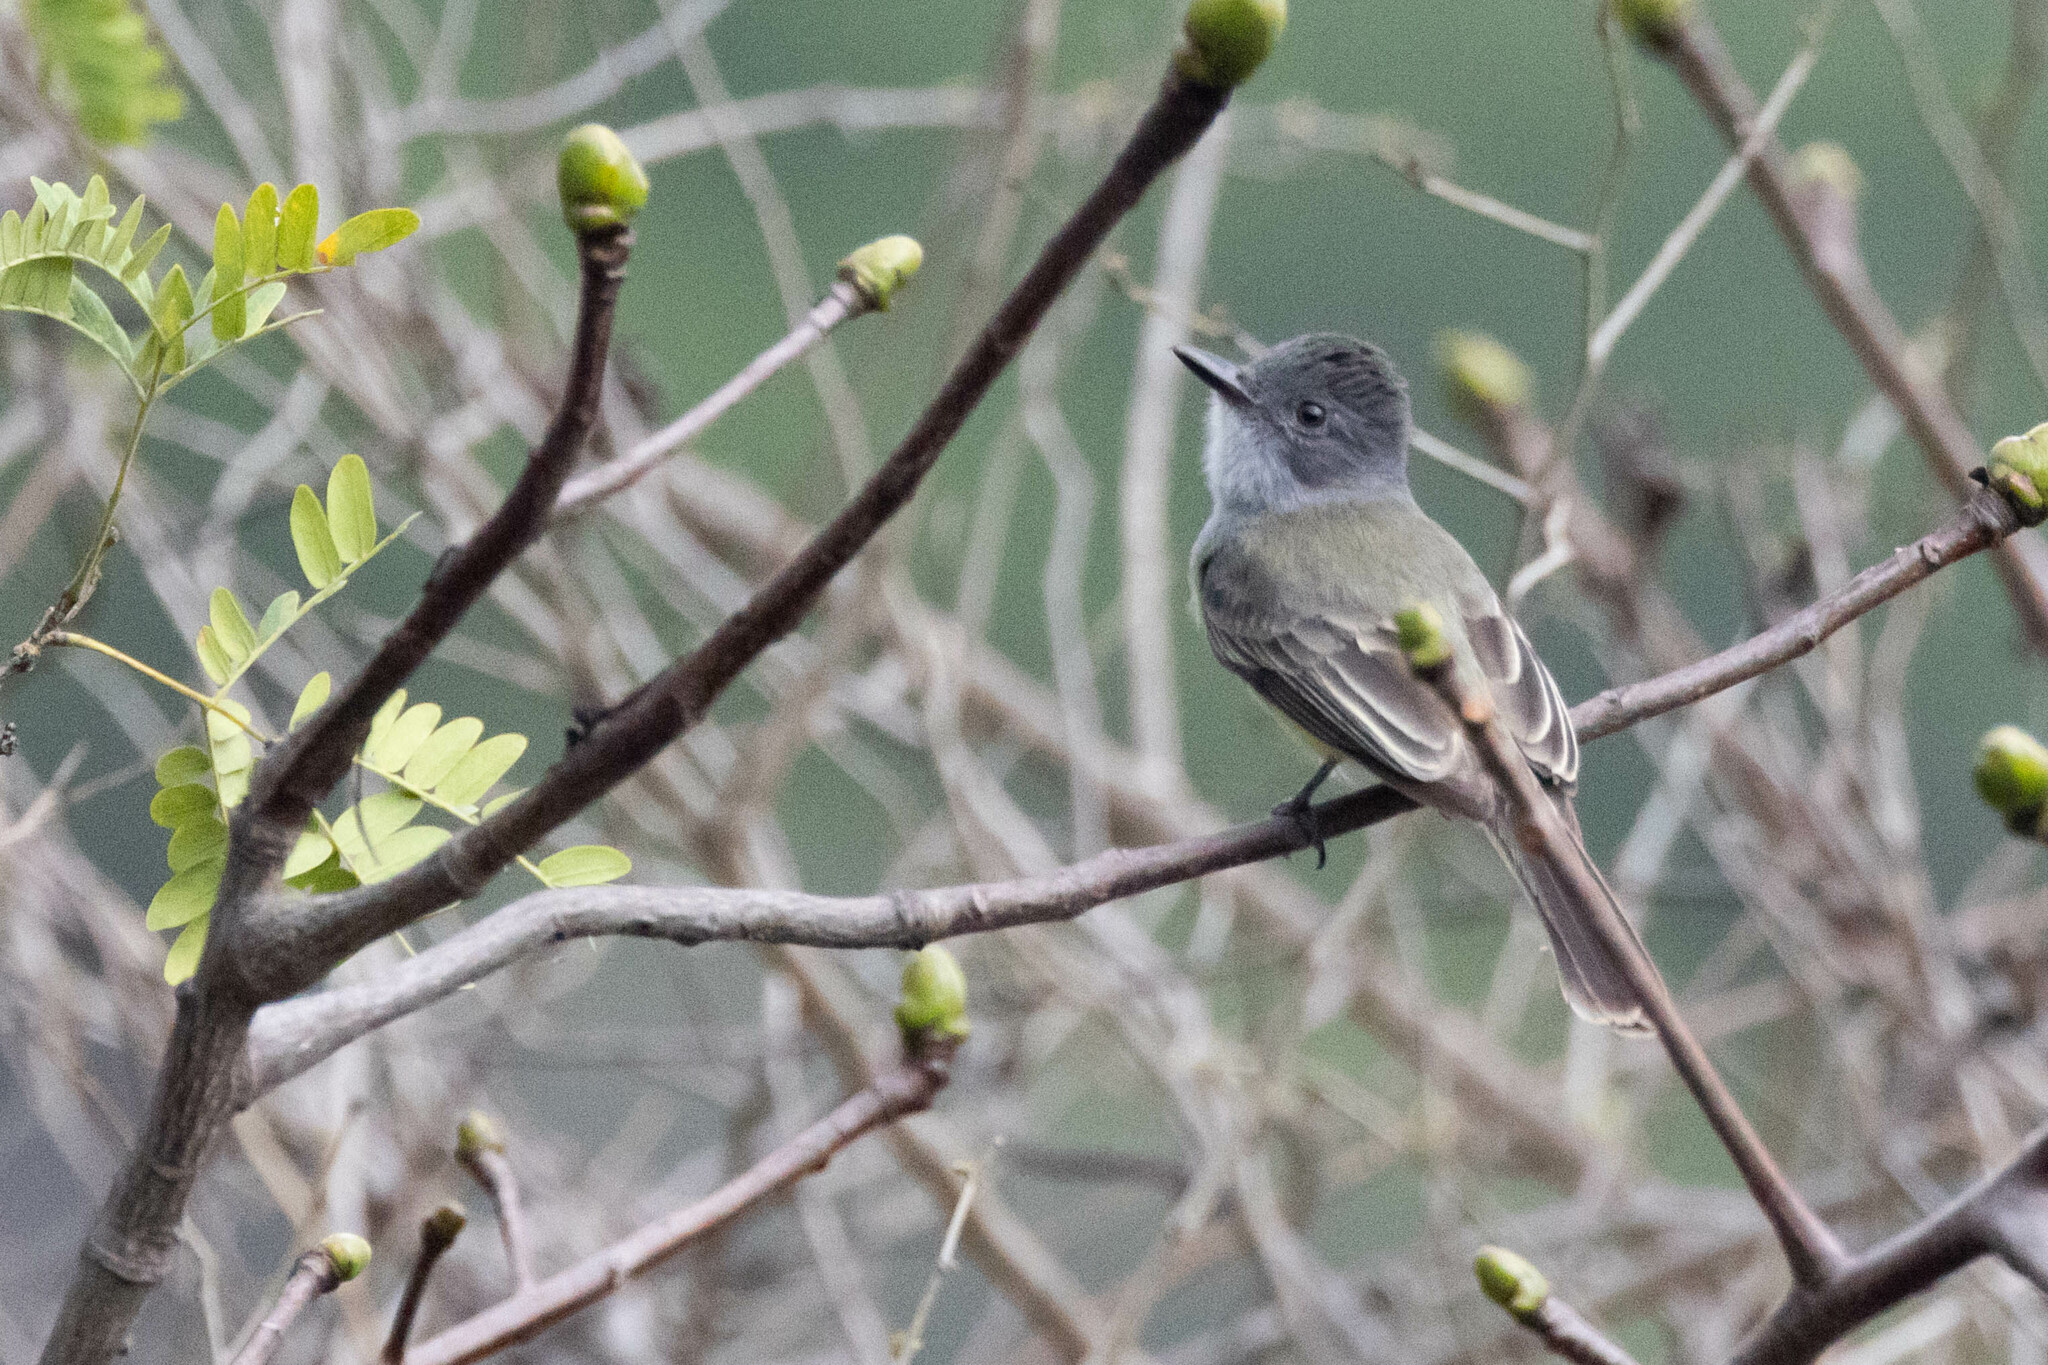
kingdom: Animalia
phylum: Chordata
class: Aves
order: Passeriformes
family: Tyrannidae
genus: Myiarchus
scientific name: Myiarchus phaeocephalus
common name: Sooty-crowned flycatcher
